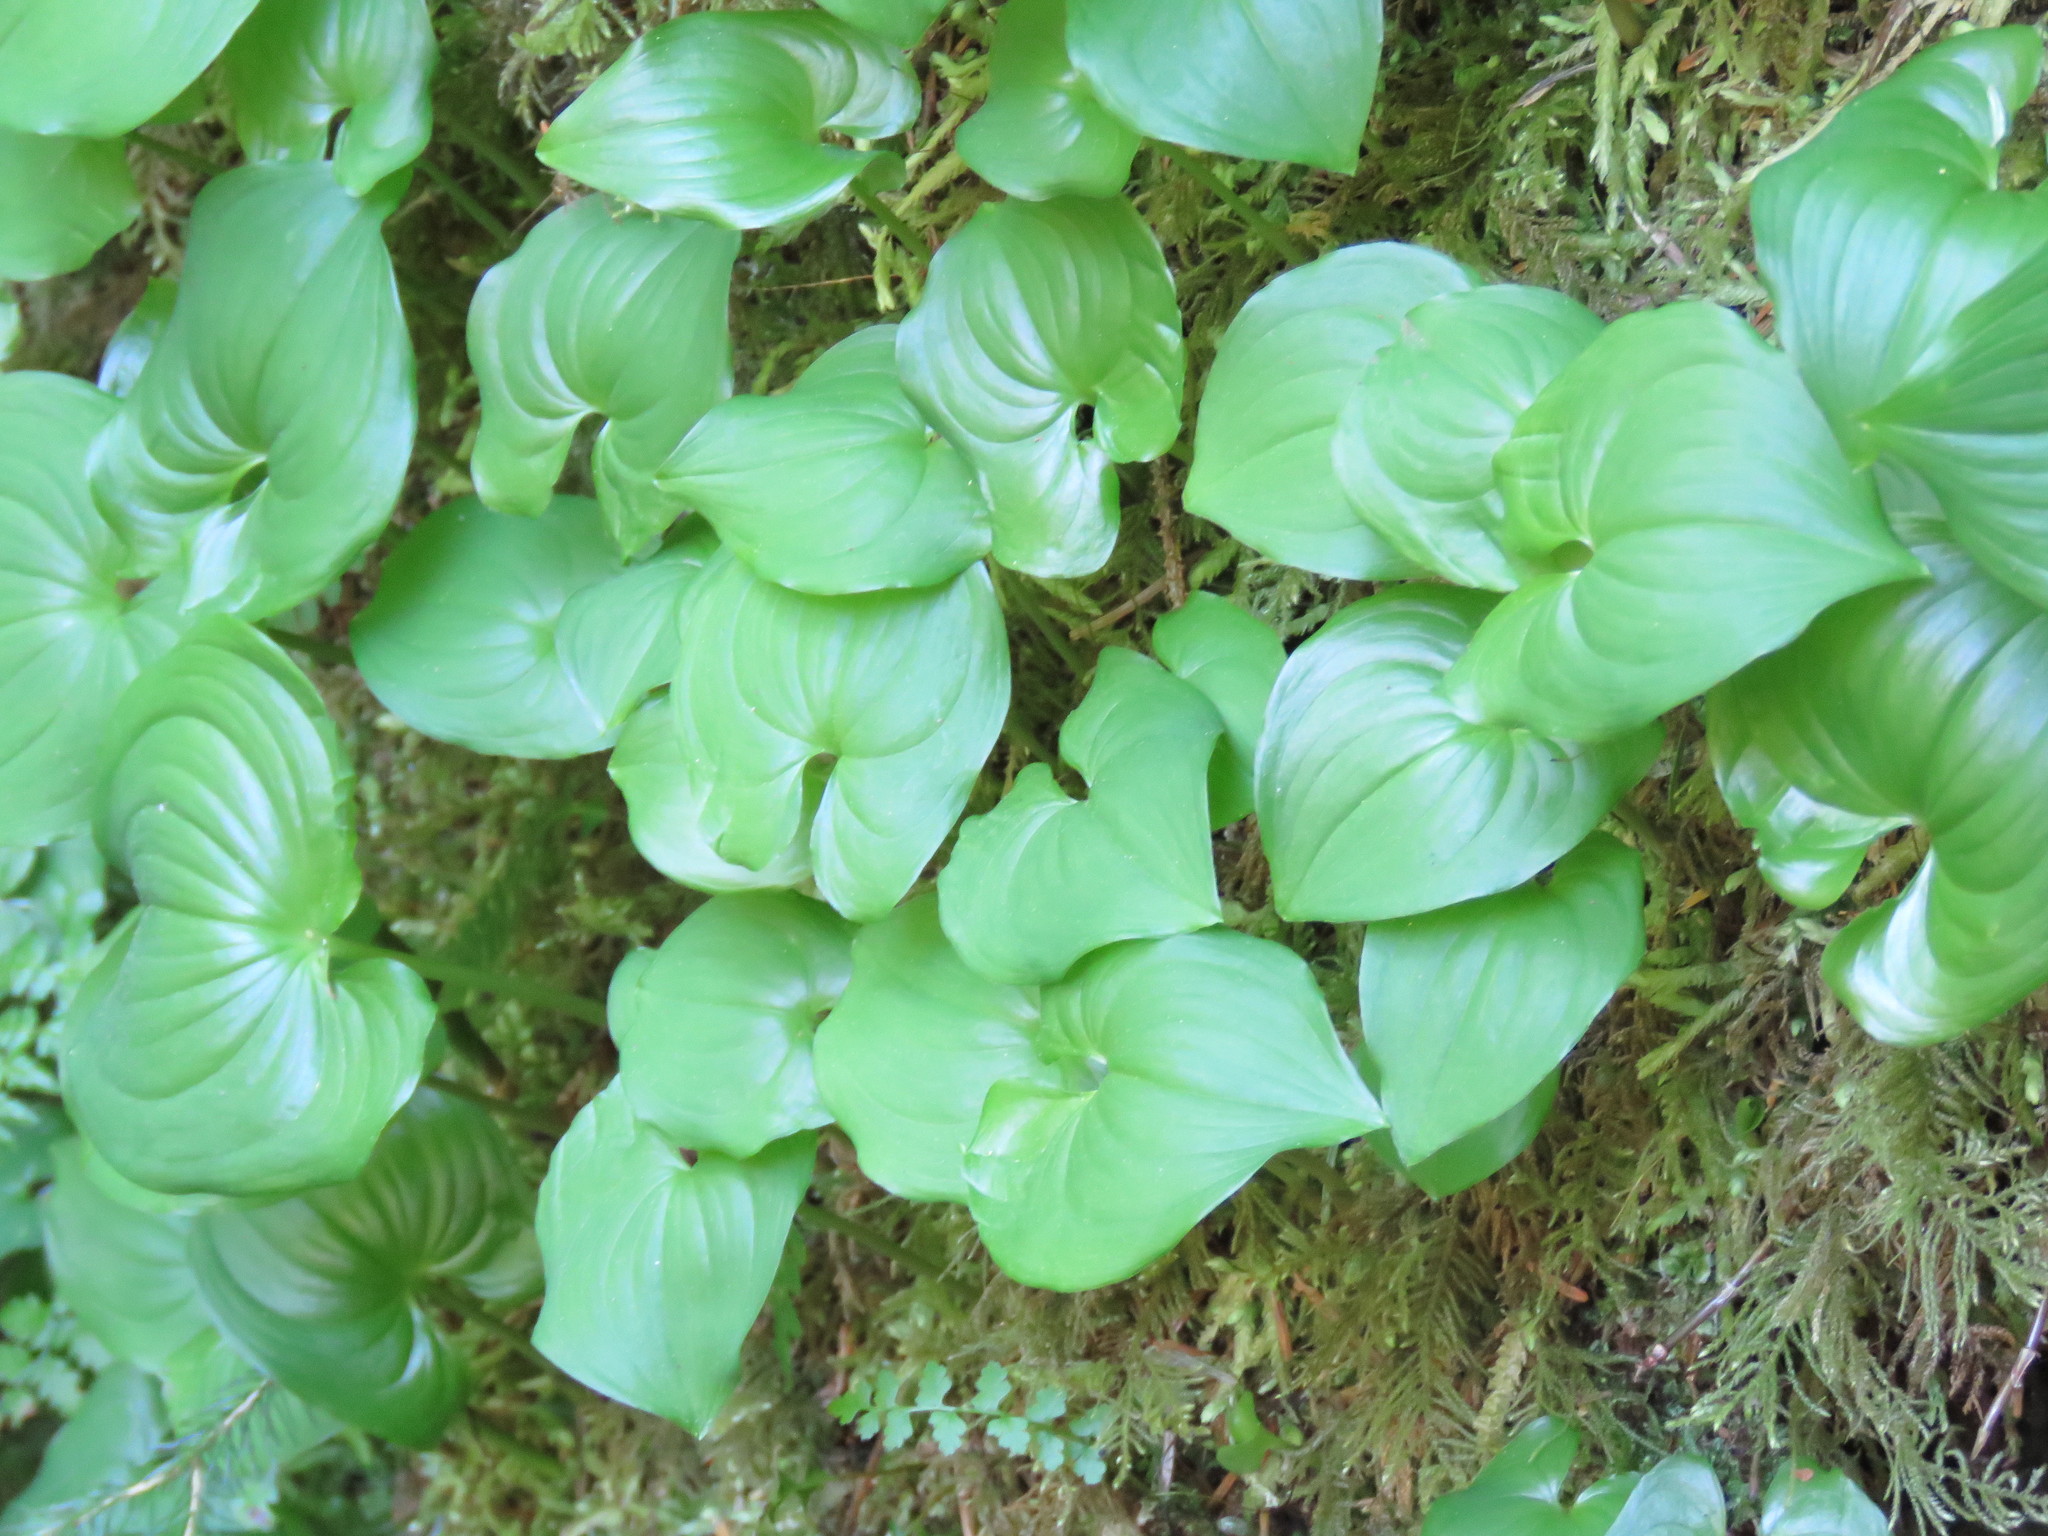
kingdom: Plantae
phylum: Tracheophyta
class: Liliopsida
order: Asparagales
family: Asparagaceae
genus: Maianthemum
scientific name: Maianthemum dilatatum
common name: False lily-of-the-valley
